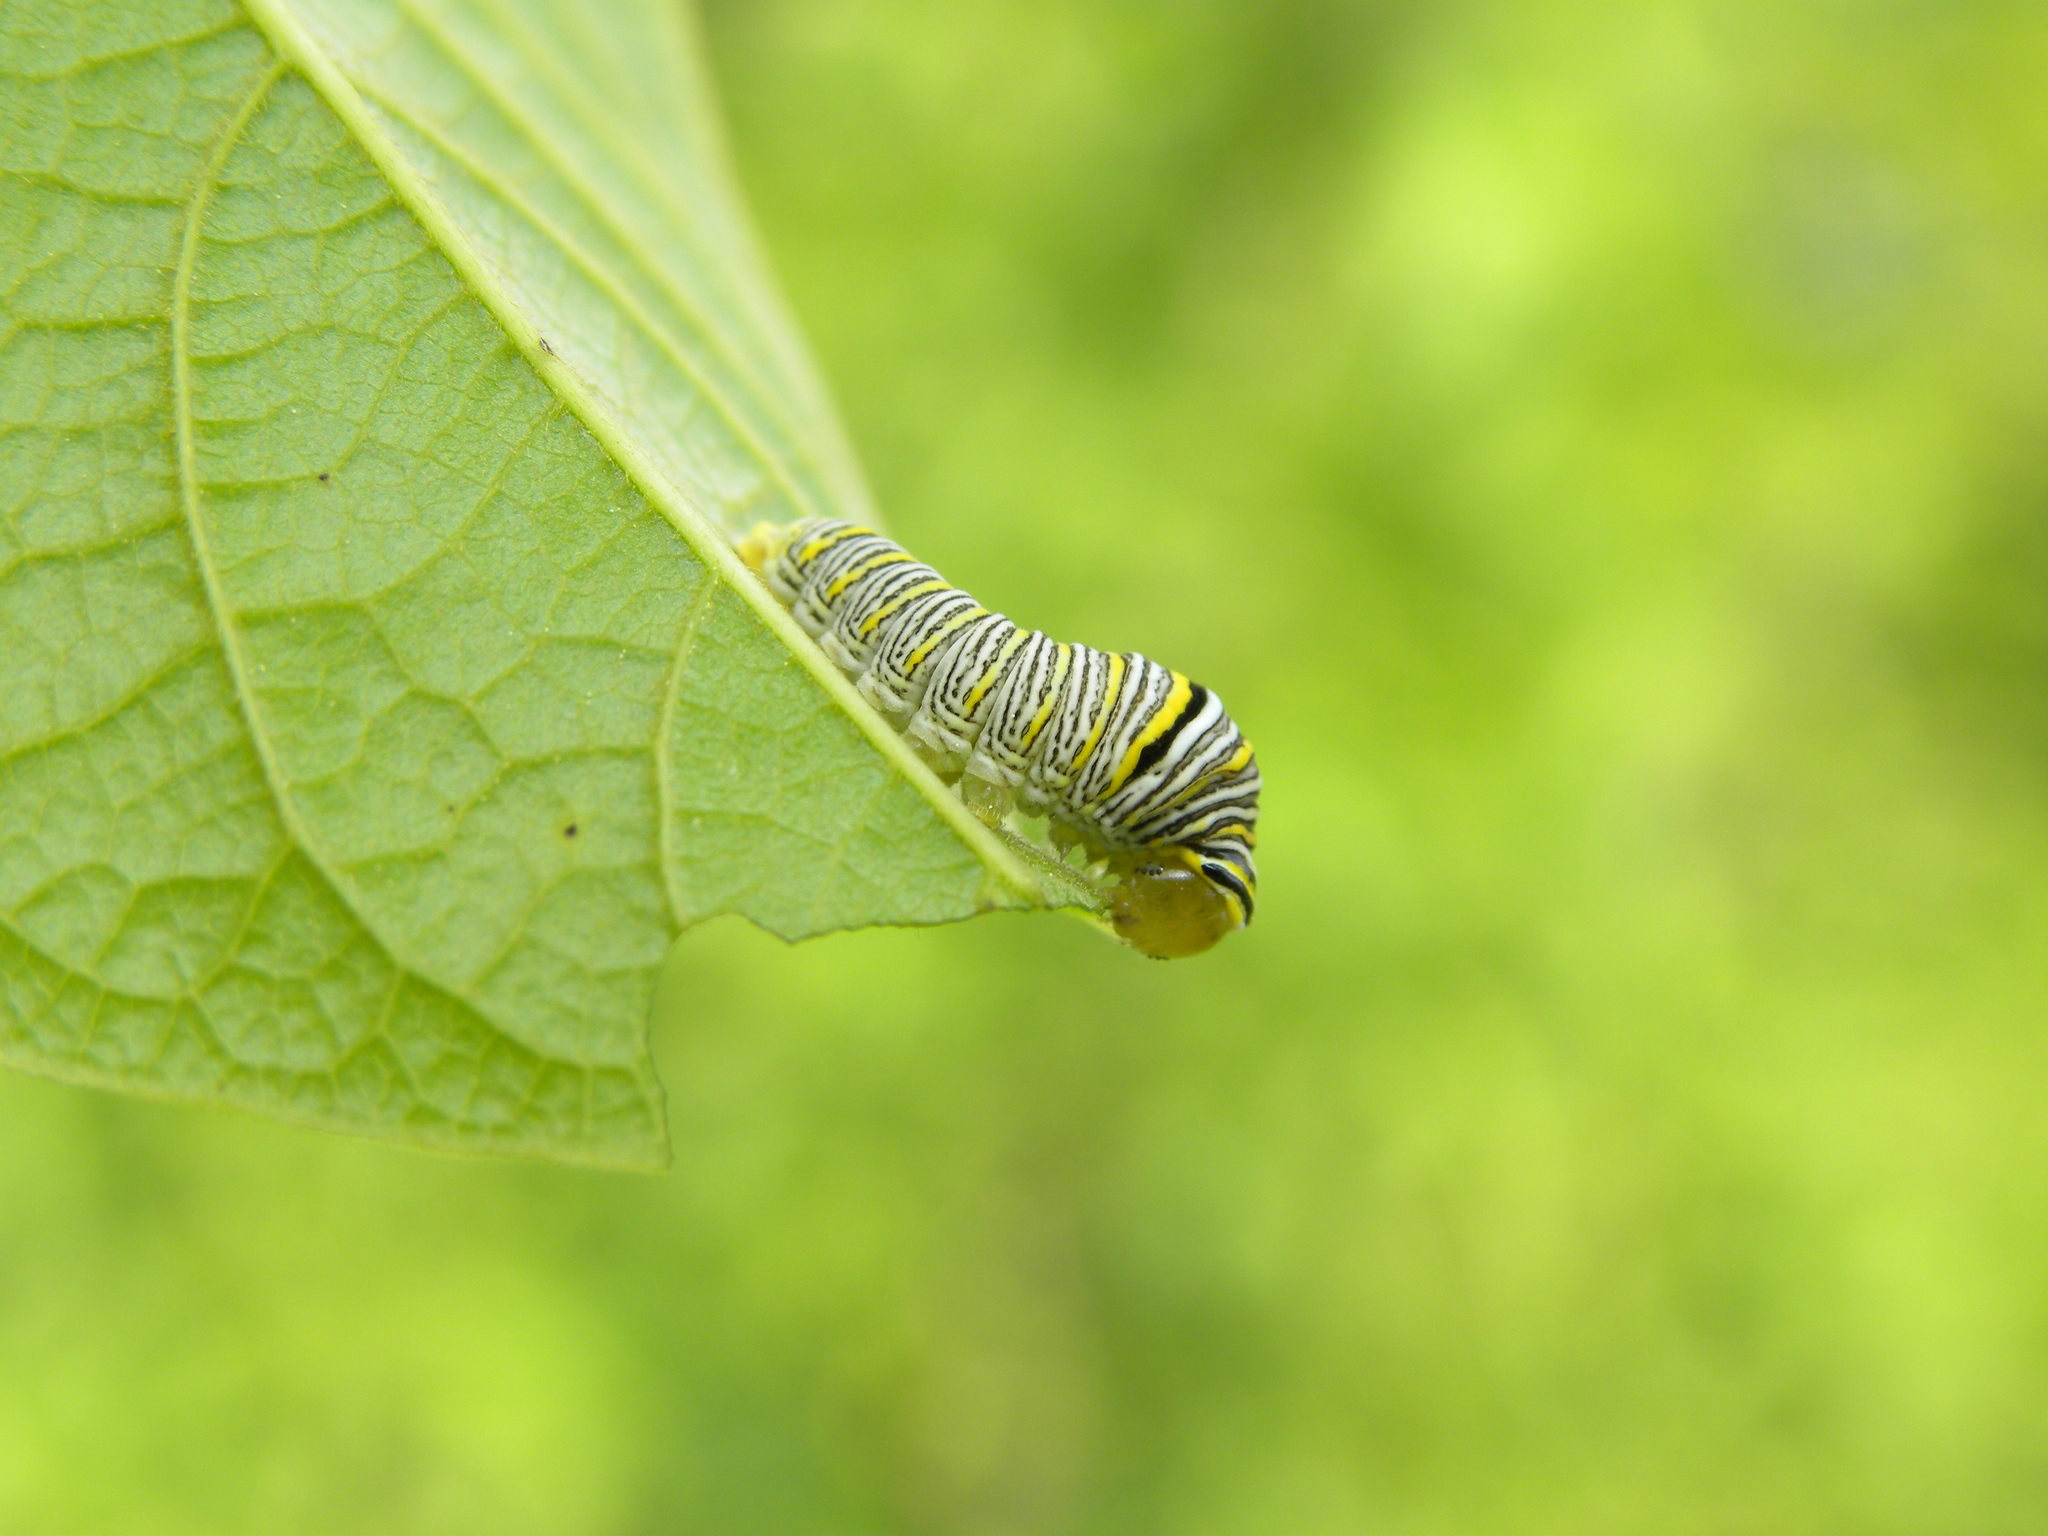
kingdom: Animalia
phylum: Arthropoda
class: Insecta
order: Lepidoptera
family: Papilionidae
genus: Protographium
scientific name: Protographium marcellus
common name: Zebra swallowtail
